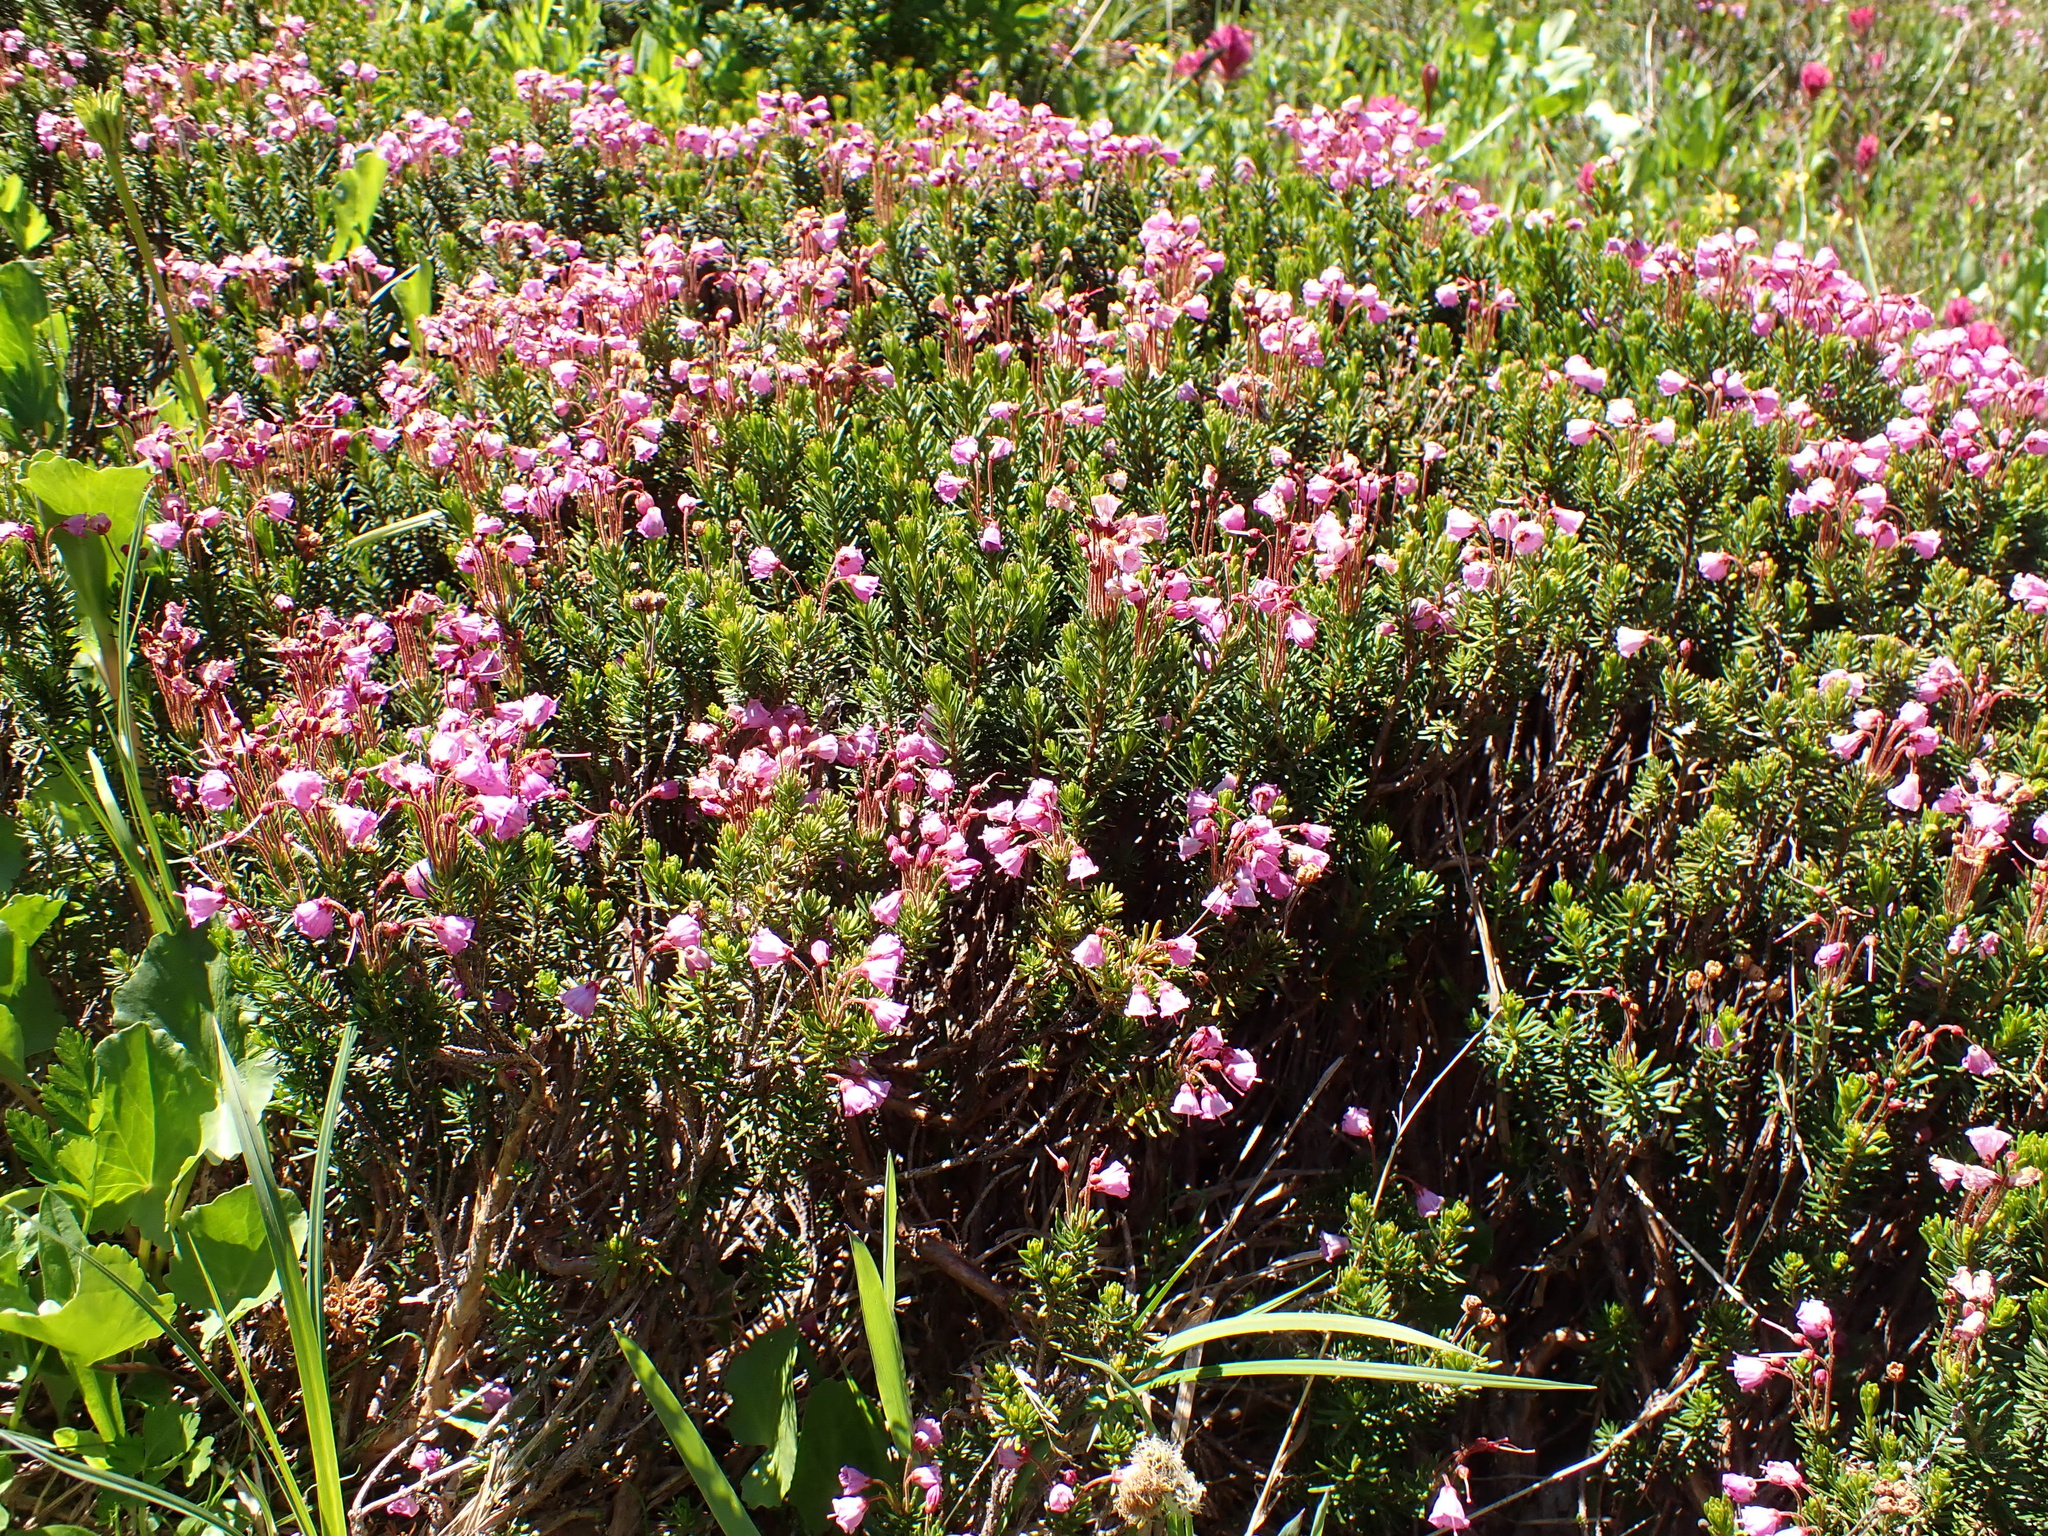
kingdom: Plantae
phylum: Tracheophyta
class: Magnoliopsida
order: Ericales
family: Ericaceae
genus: Phyllodoce
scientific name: Phyllodoce empetriformis
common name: Pink mountain heather
